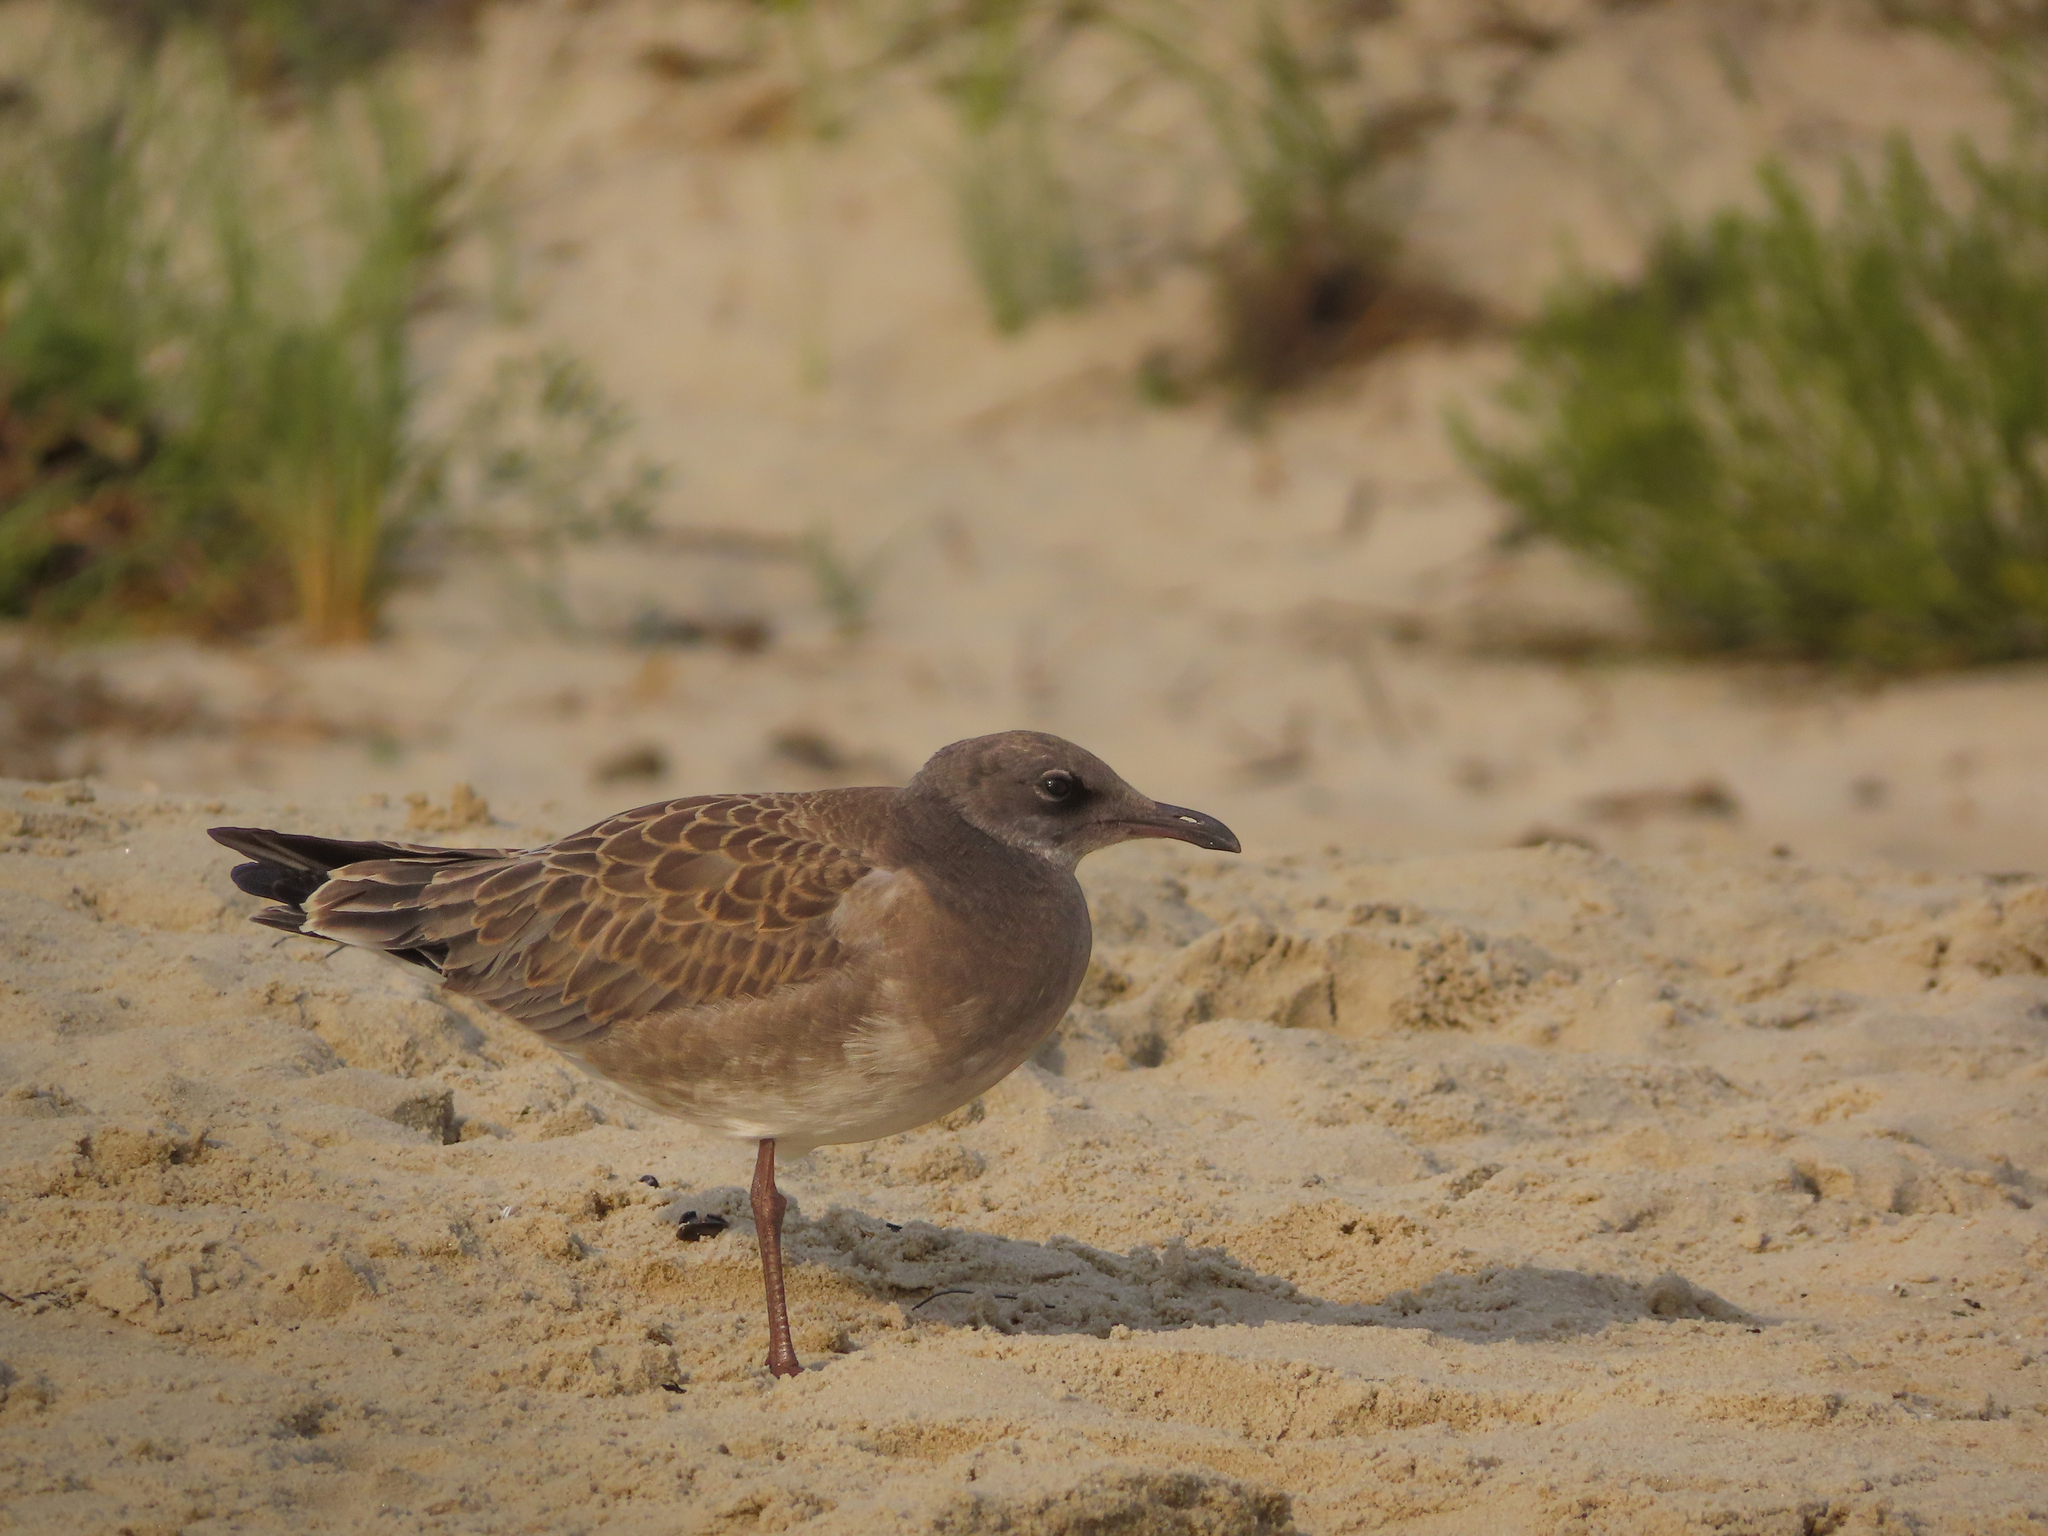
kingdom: Animalia
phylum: Chordata
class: Aves
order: Charadriiformes
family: Laridae
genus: Leucophaeus
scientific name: Leucophaeus atricilla
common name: Laughing gull
